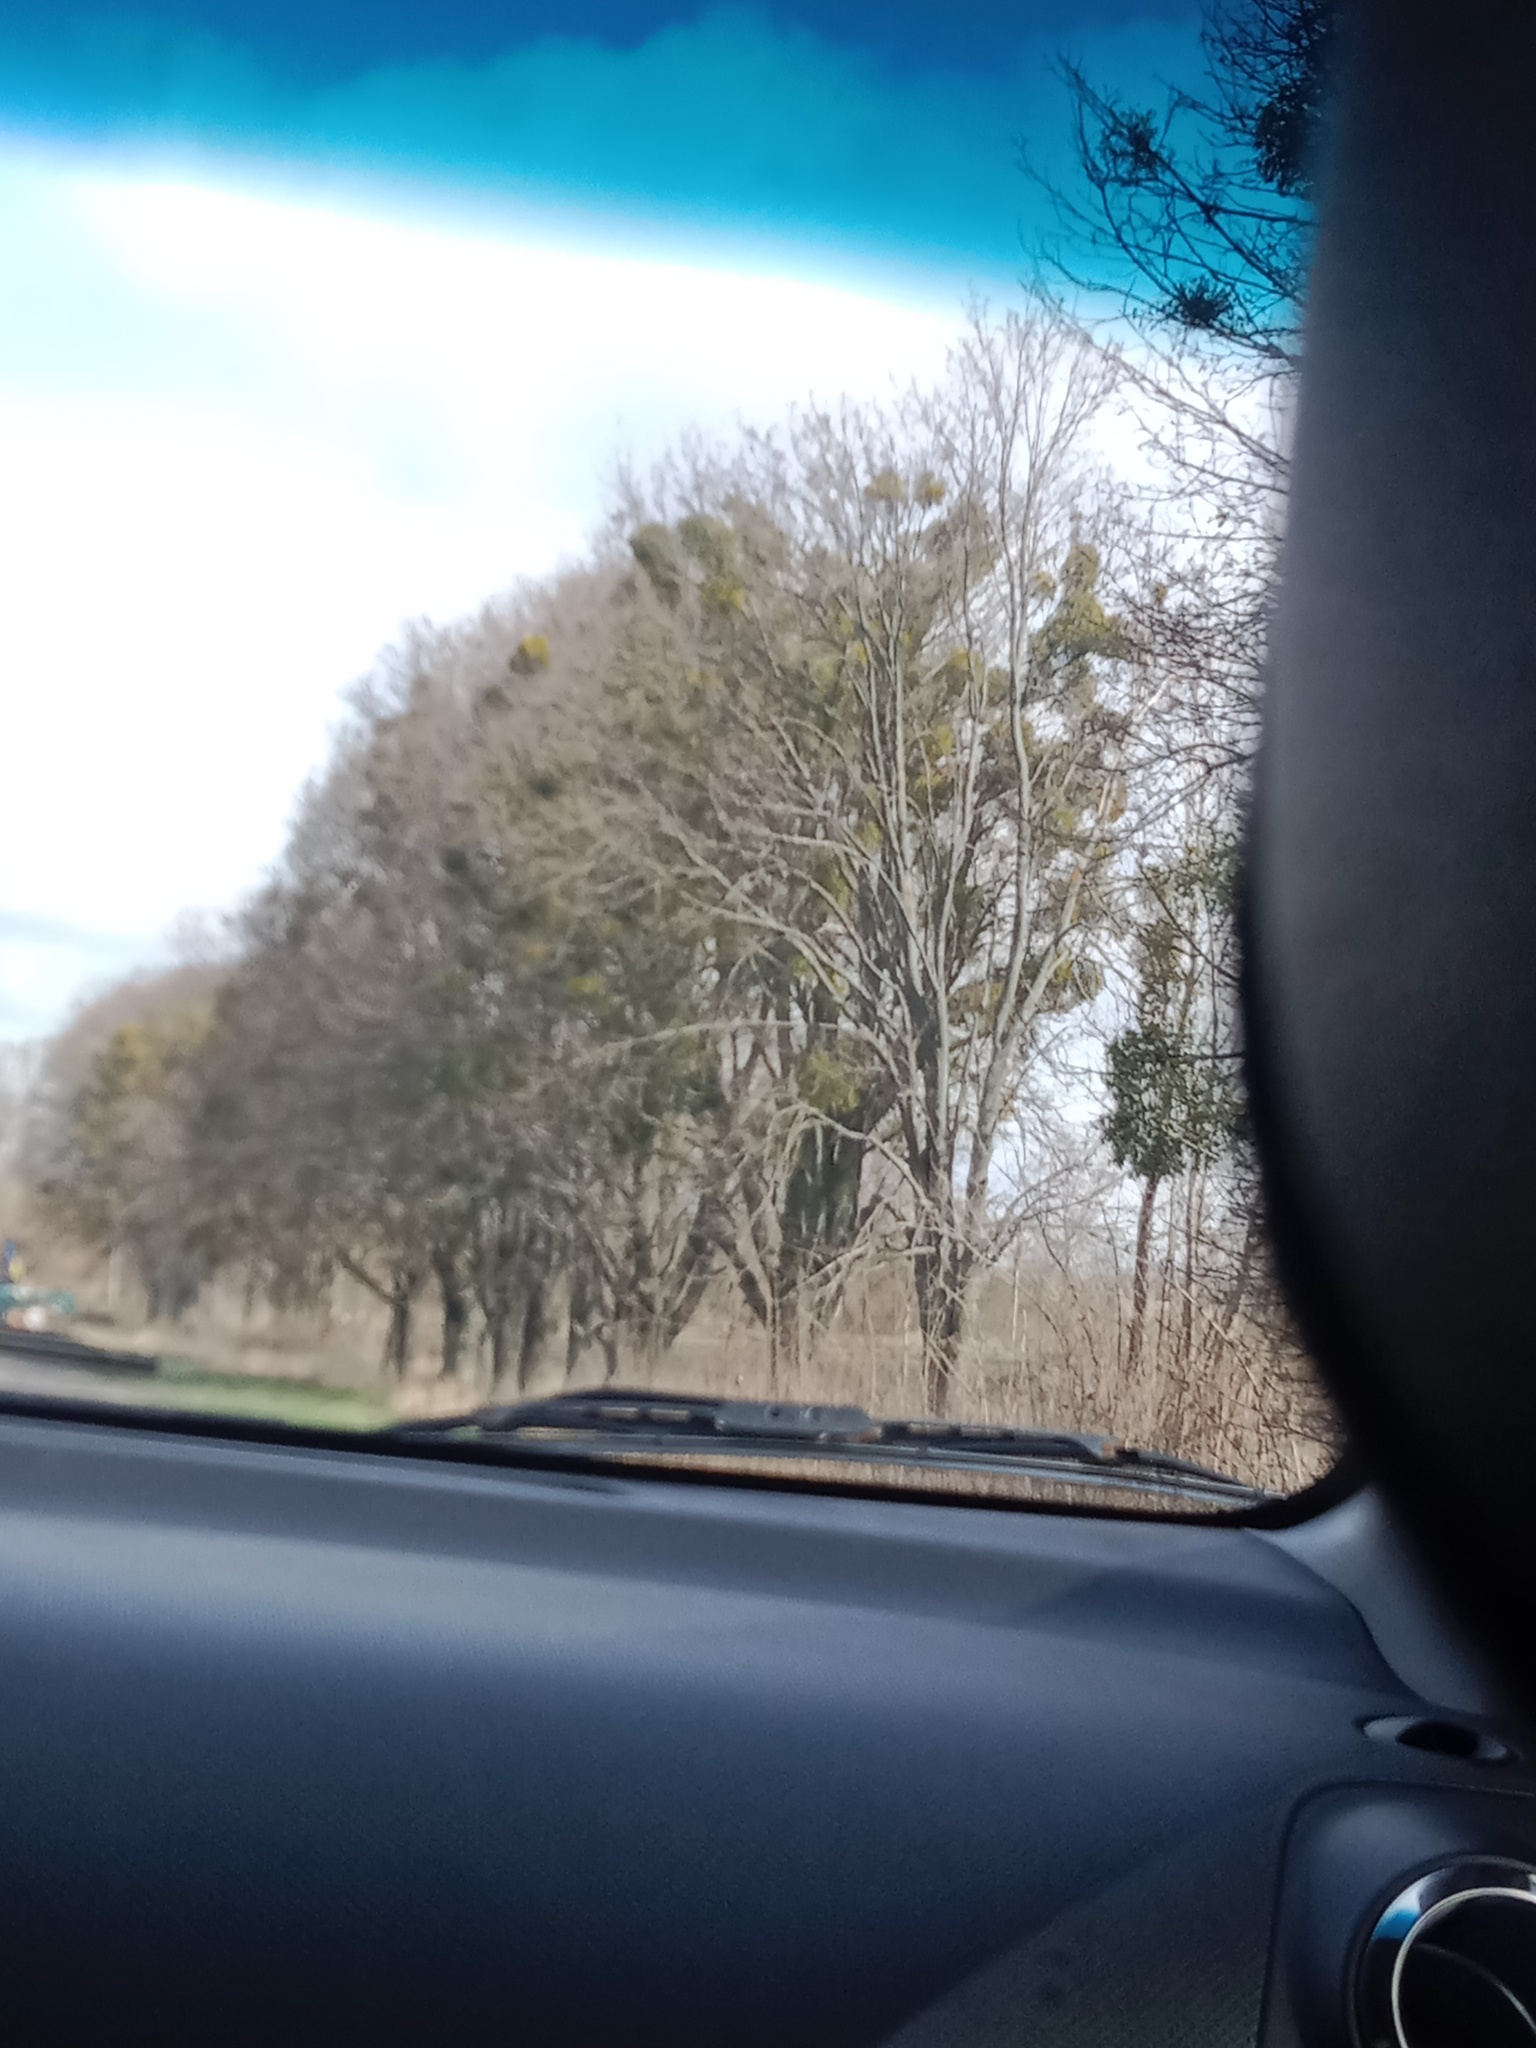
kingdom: Plantae
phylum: Tracheophyta
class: Magnoliopsida
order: Santalales
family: Viscaceae
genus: Viscum
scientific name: Viscum album
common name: Mistletoe
